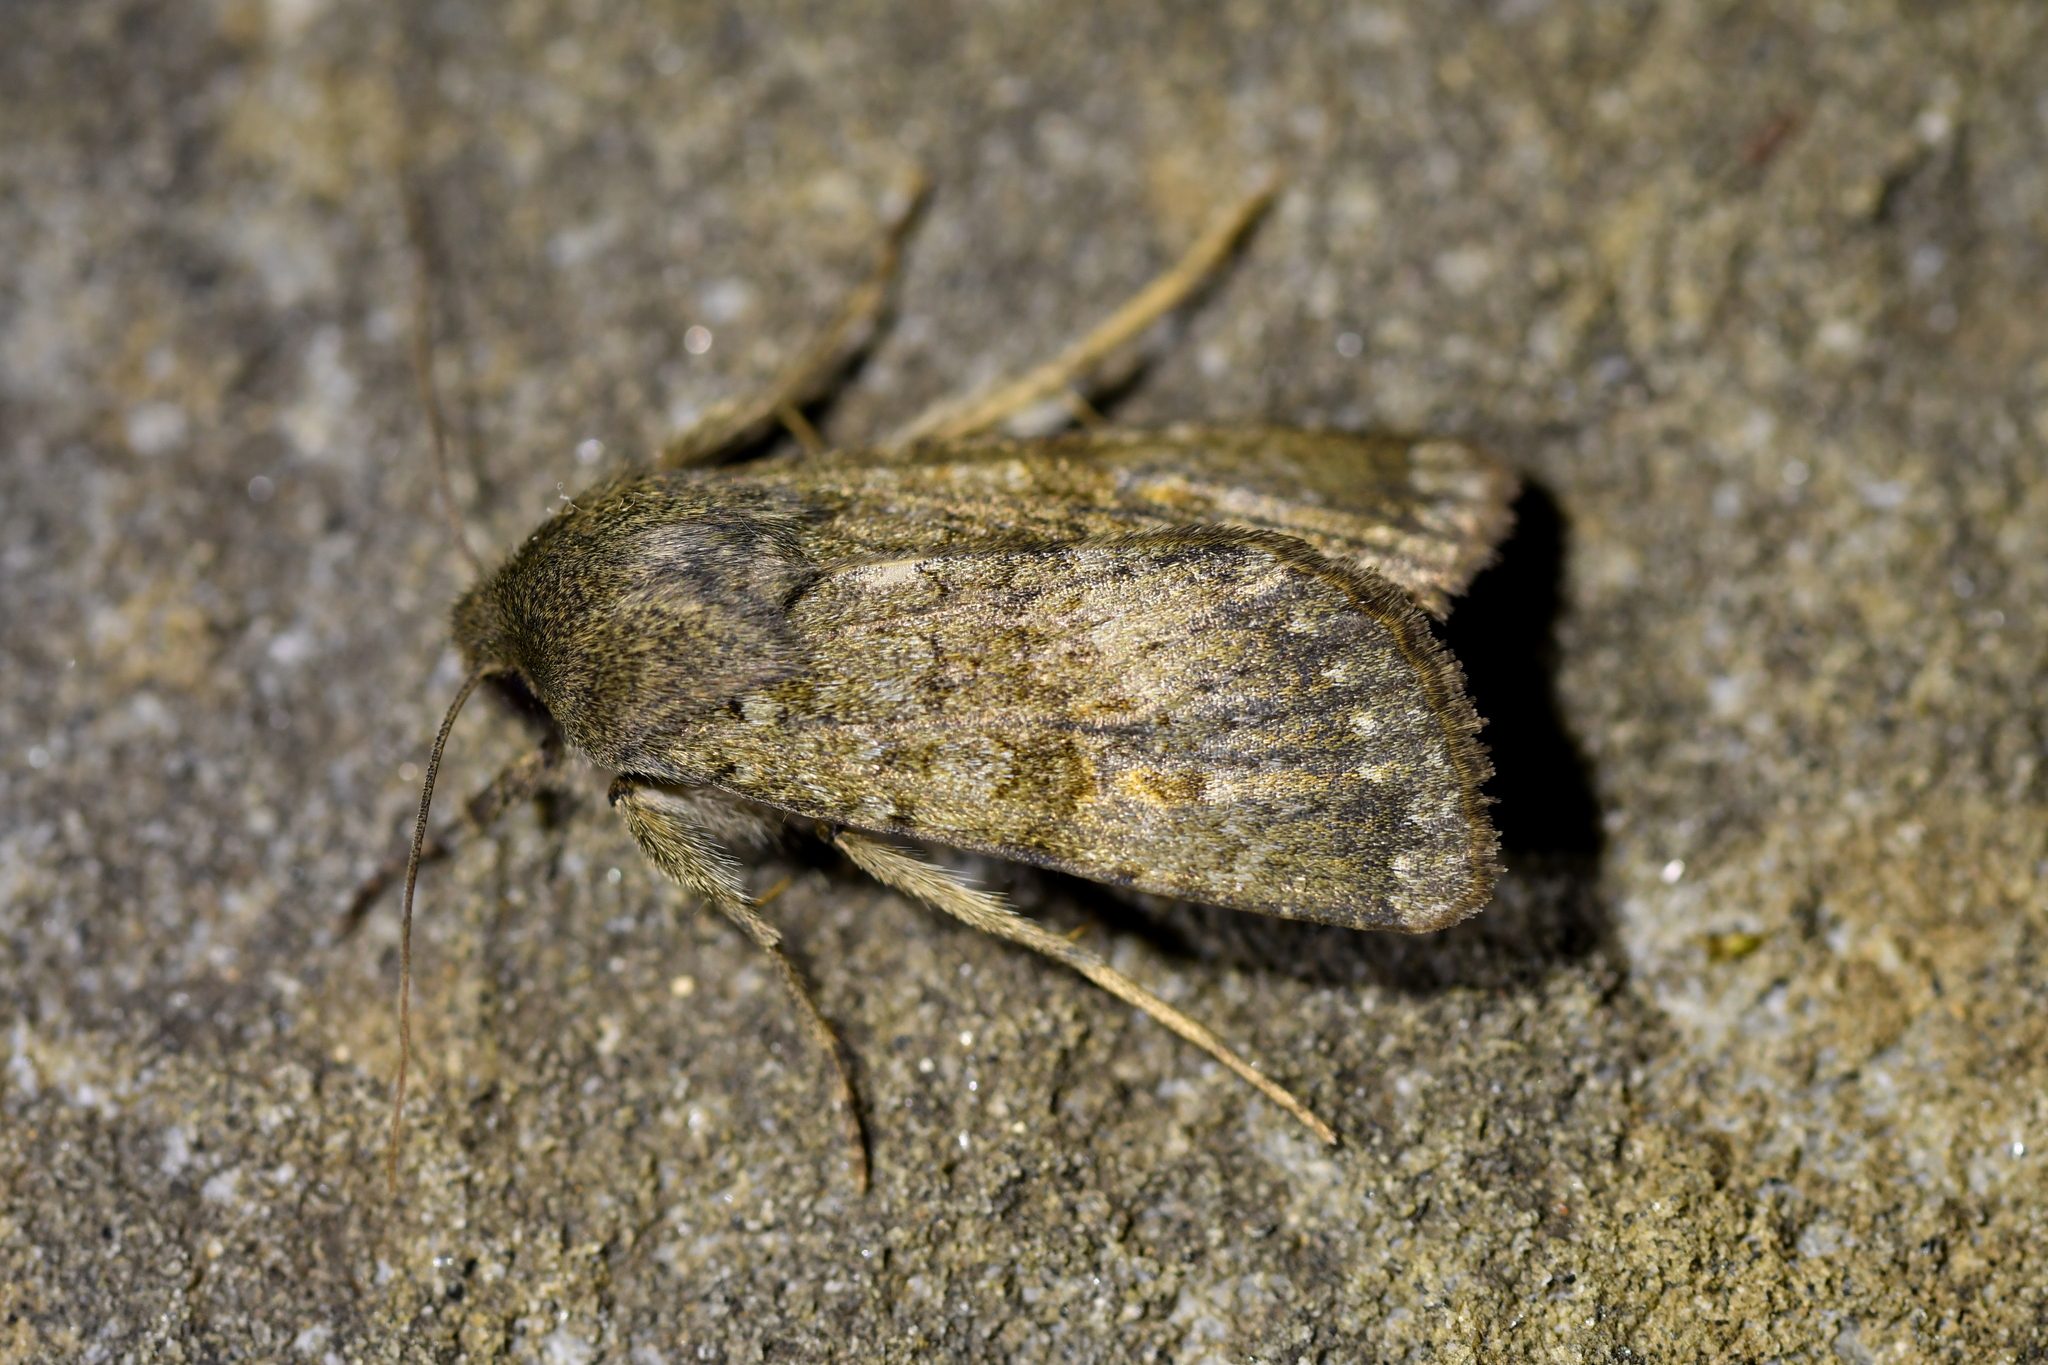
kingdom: Animalia
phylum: Arthropoda
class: Insecta
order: Lepidoptera
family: Noctuidae
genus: Ichneutica
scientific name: Ichneutica moderata
